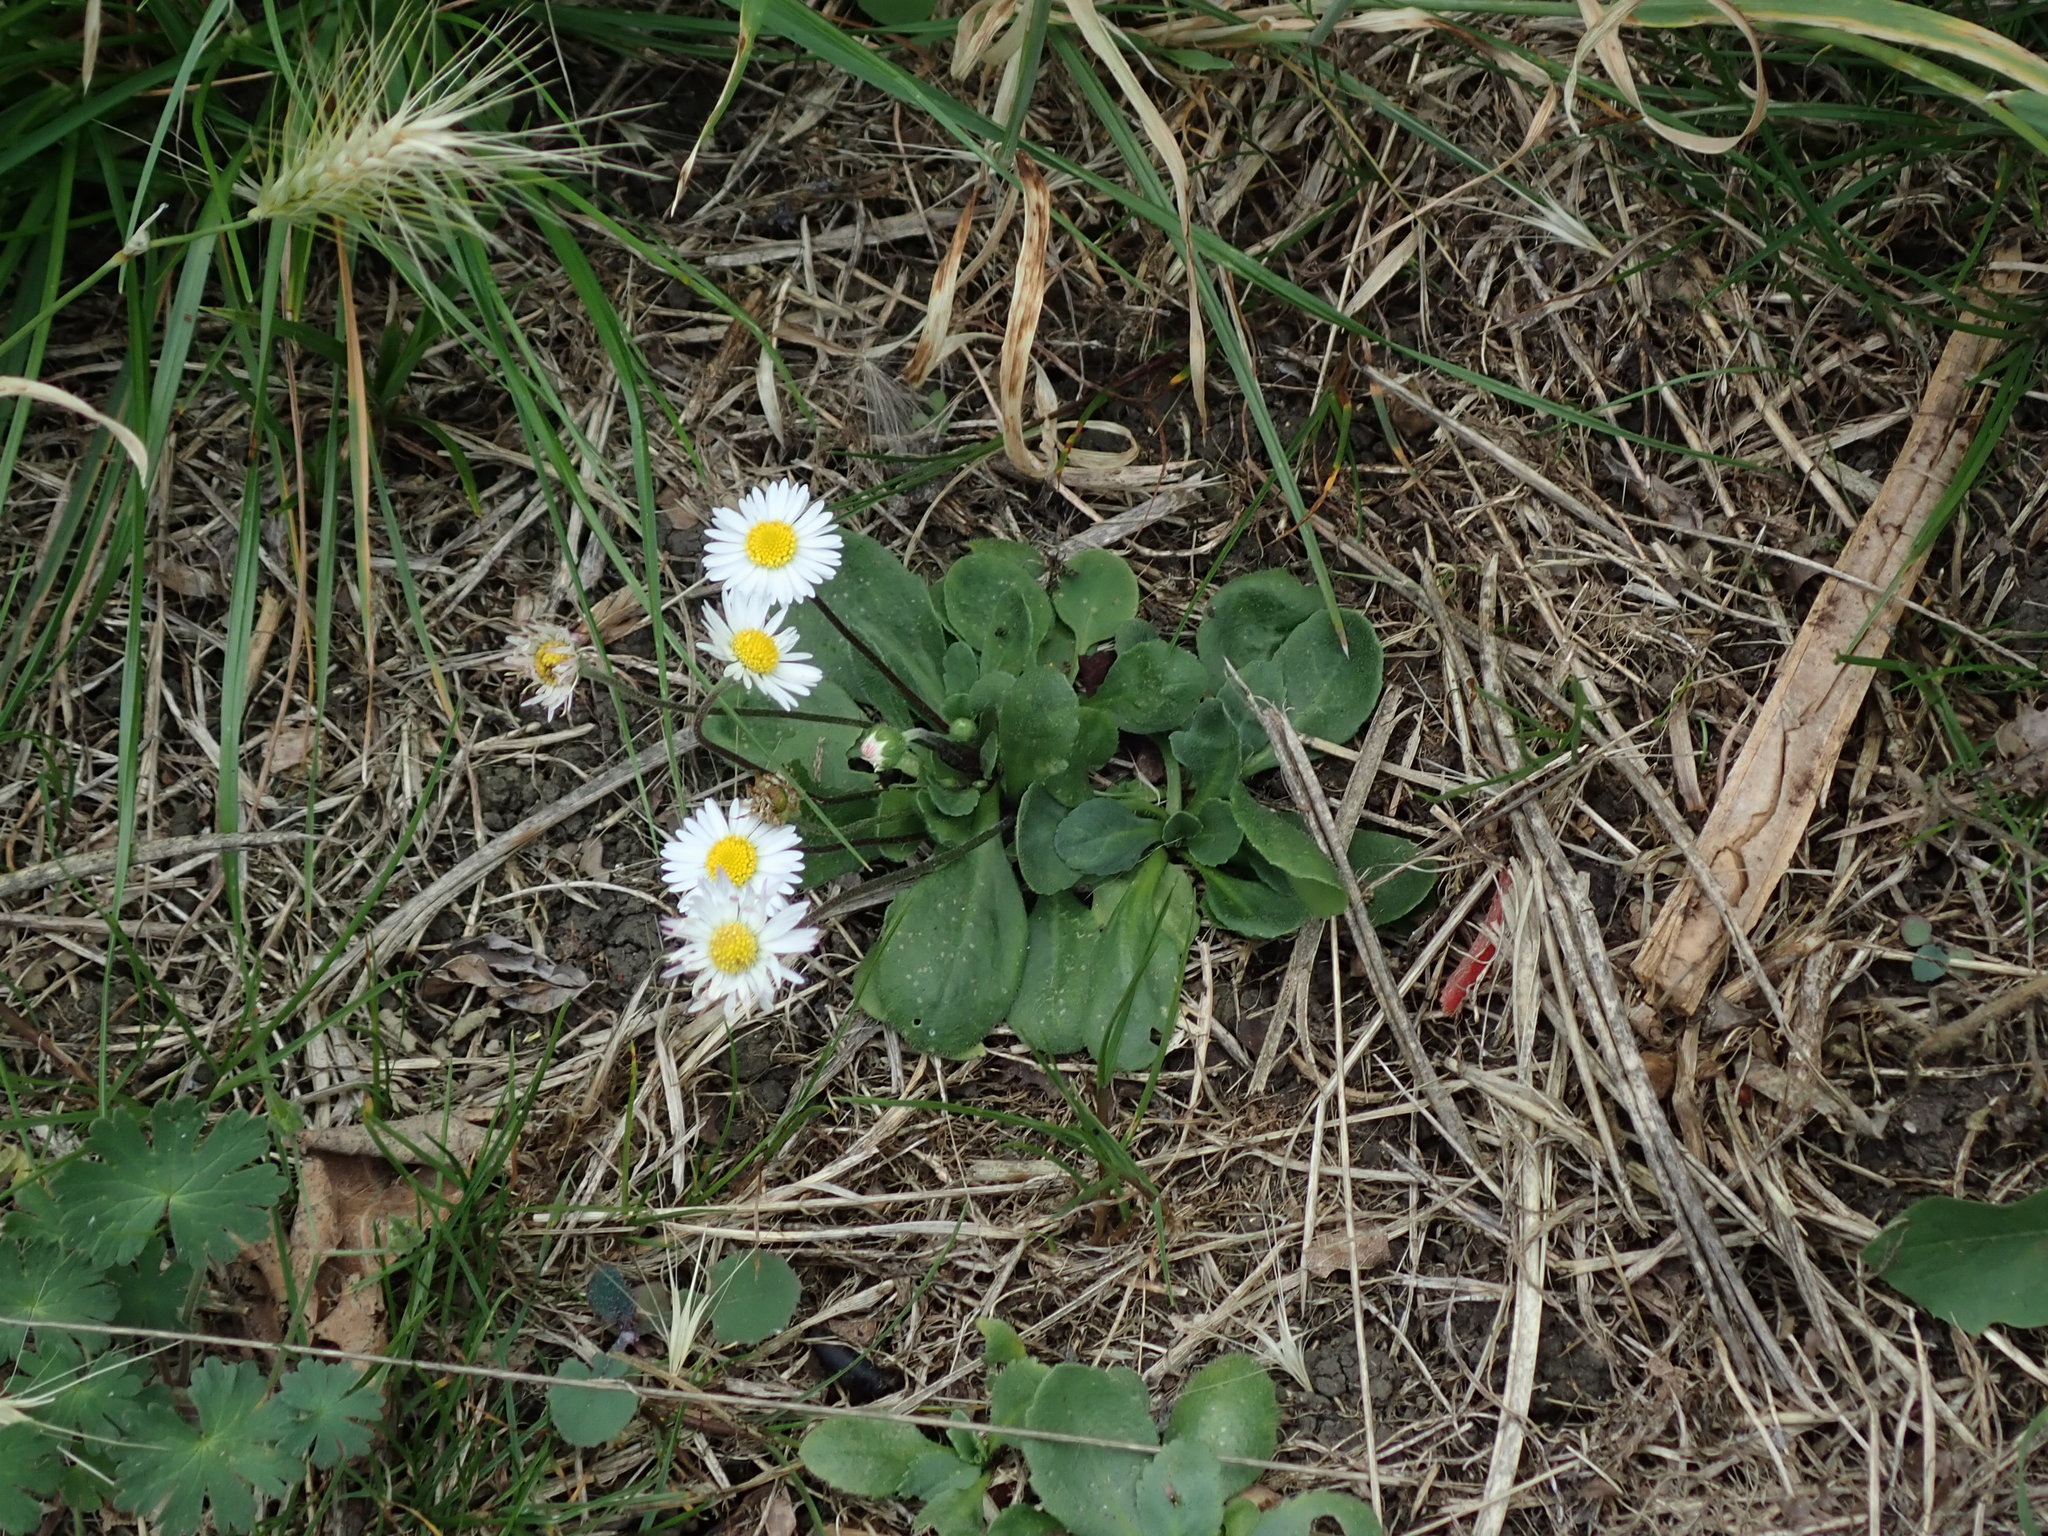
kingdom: Plantae
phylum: Tracheophyta
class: Magnoliopsida
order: Asterales
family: Asteraceae
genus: Bellis
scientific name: Bellis perennis
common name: Lawndaisy
